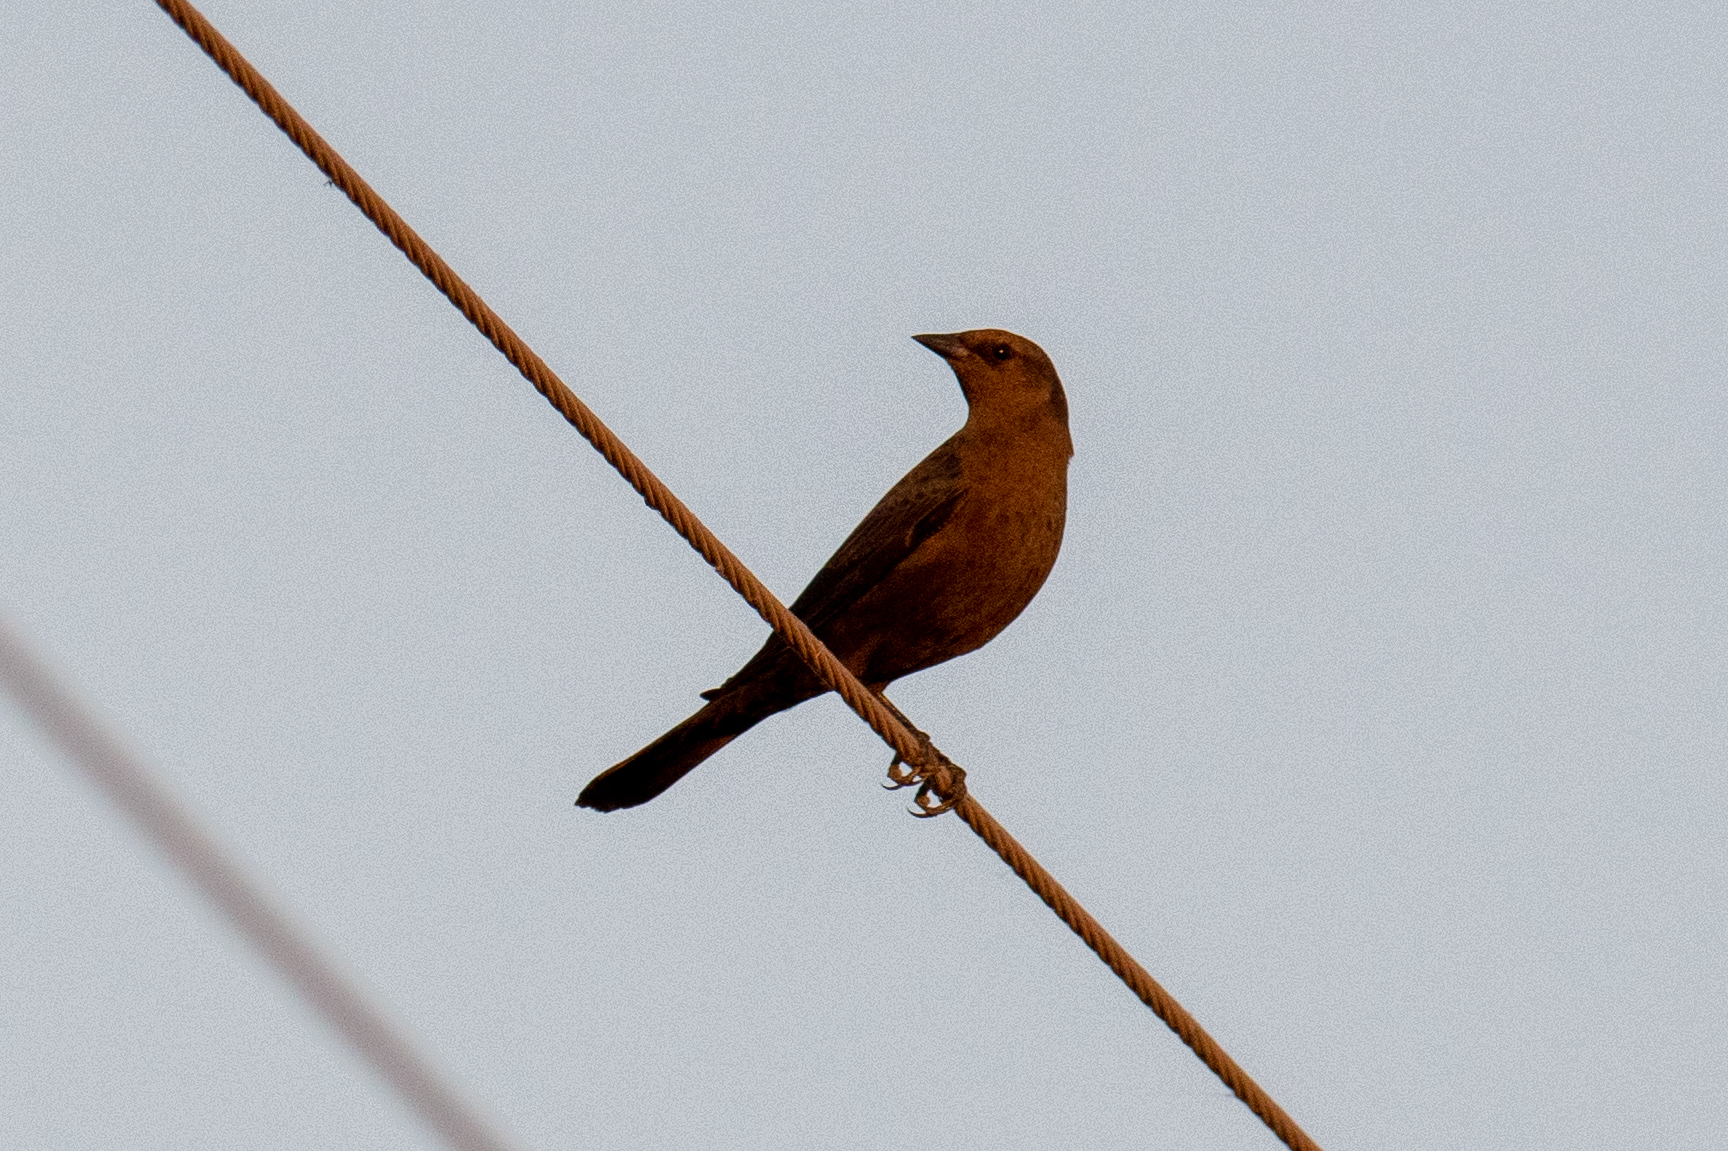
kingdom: Animalia
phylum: Chordata
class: Aves
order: Passeriformes
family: Icteridae
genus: Euphagus
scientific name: Euphagus cyanocephalus
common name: Brewer's blackbird
